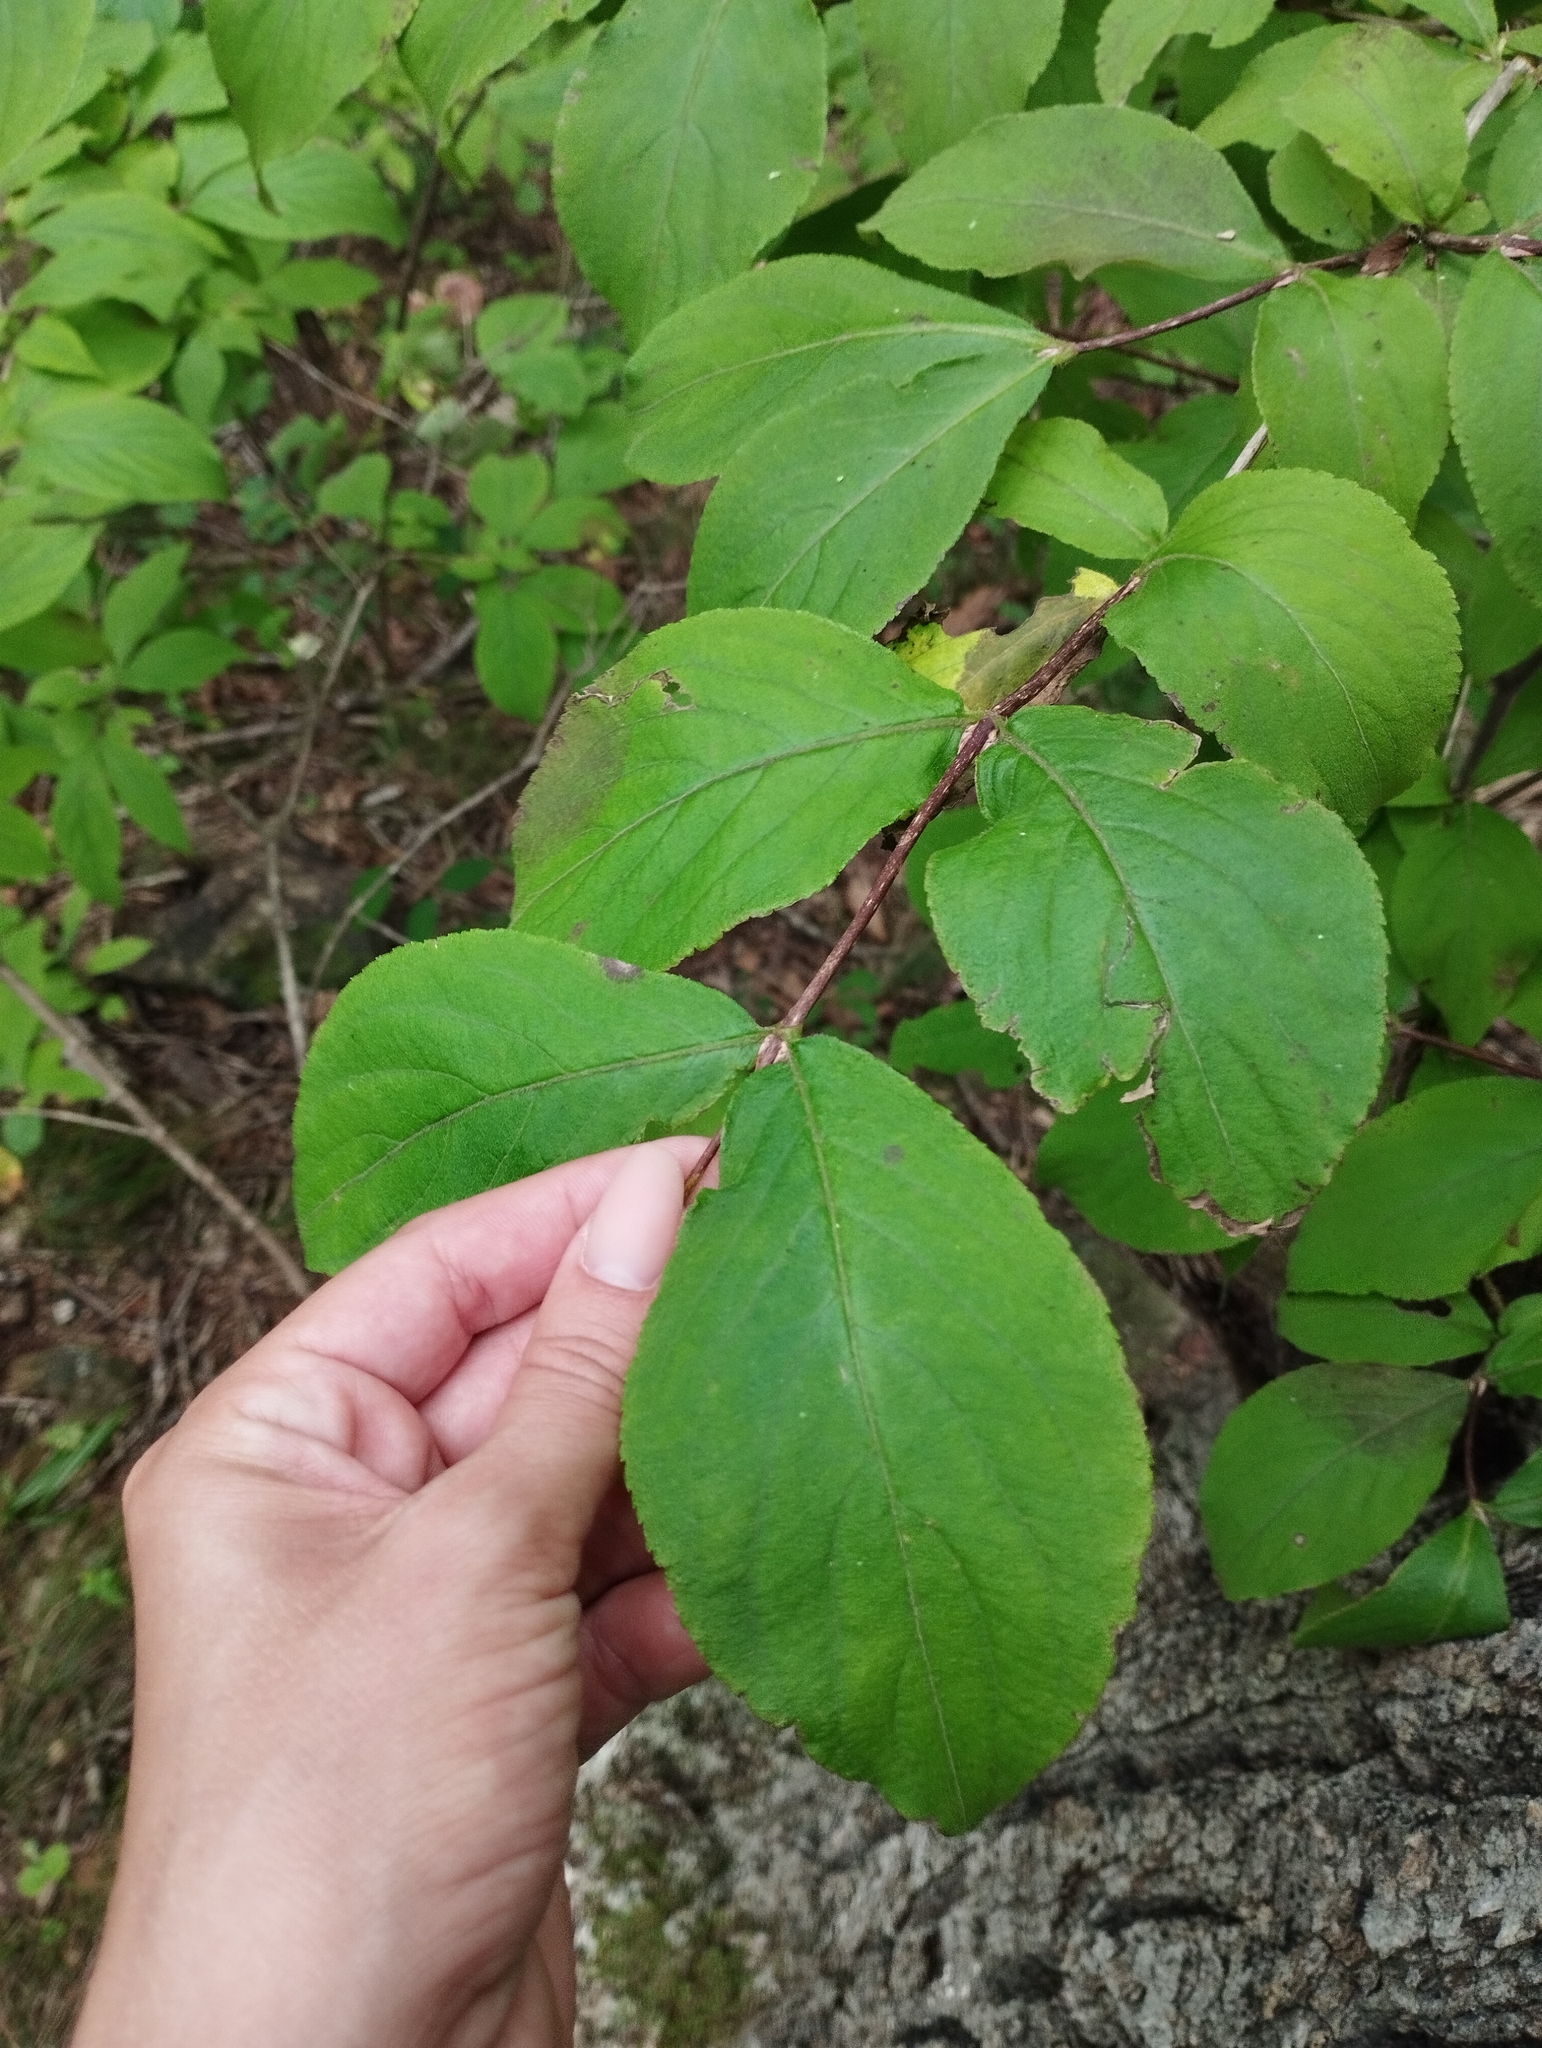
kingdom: Plantae
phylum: Tracheophyta
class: Magnoliopsida
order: Dipsacales
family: Caprifoliaceae
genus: Weigela
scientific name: Weigela florida
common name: Weigelia
